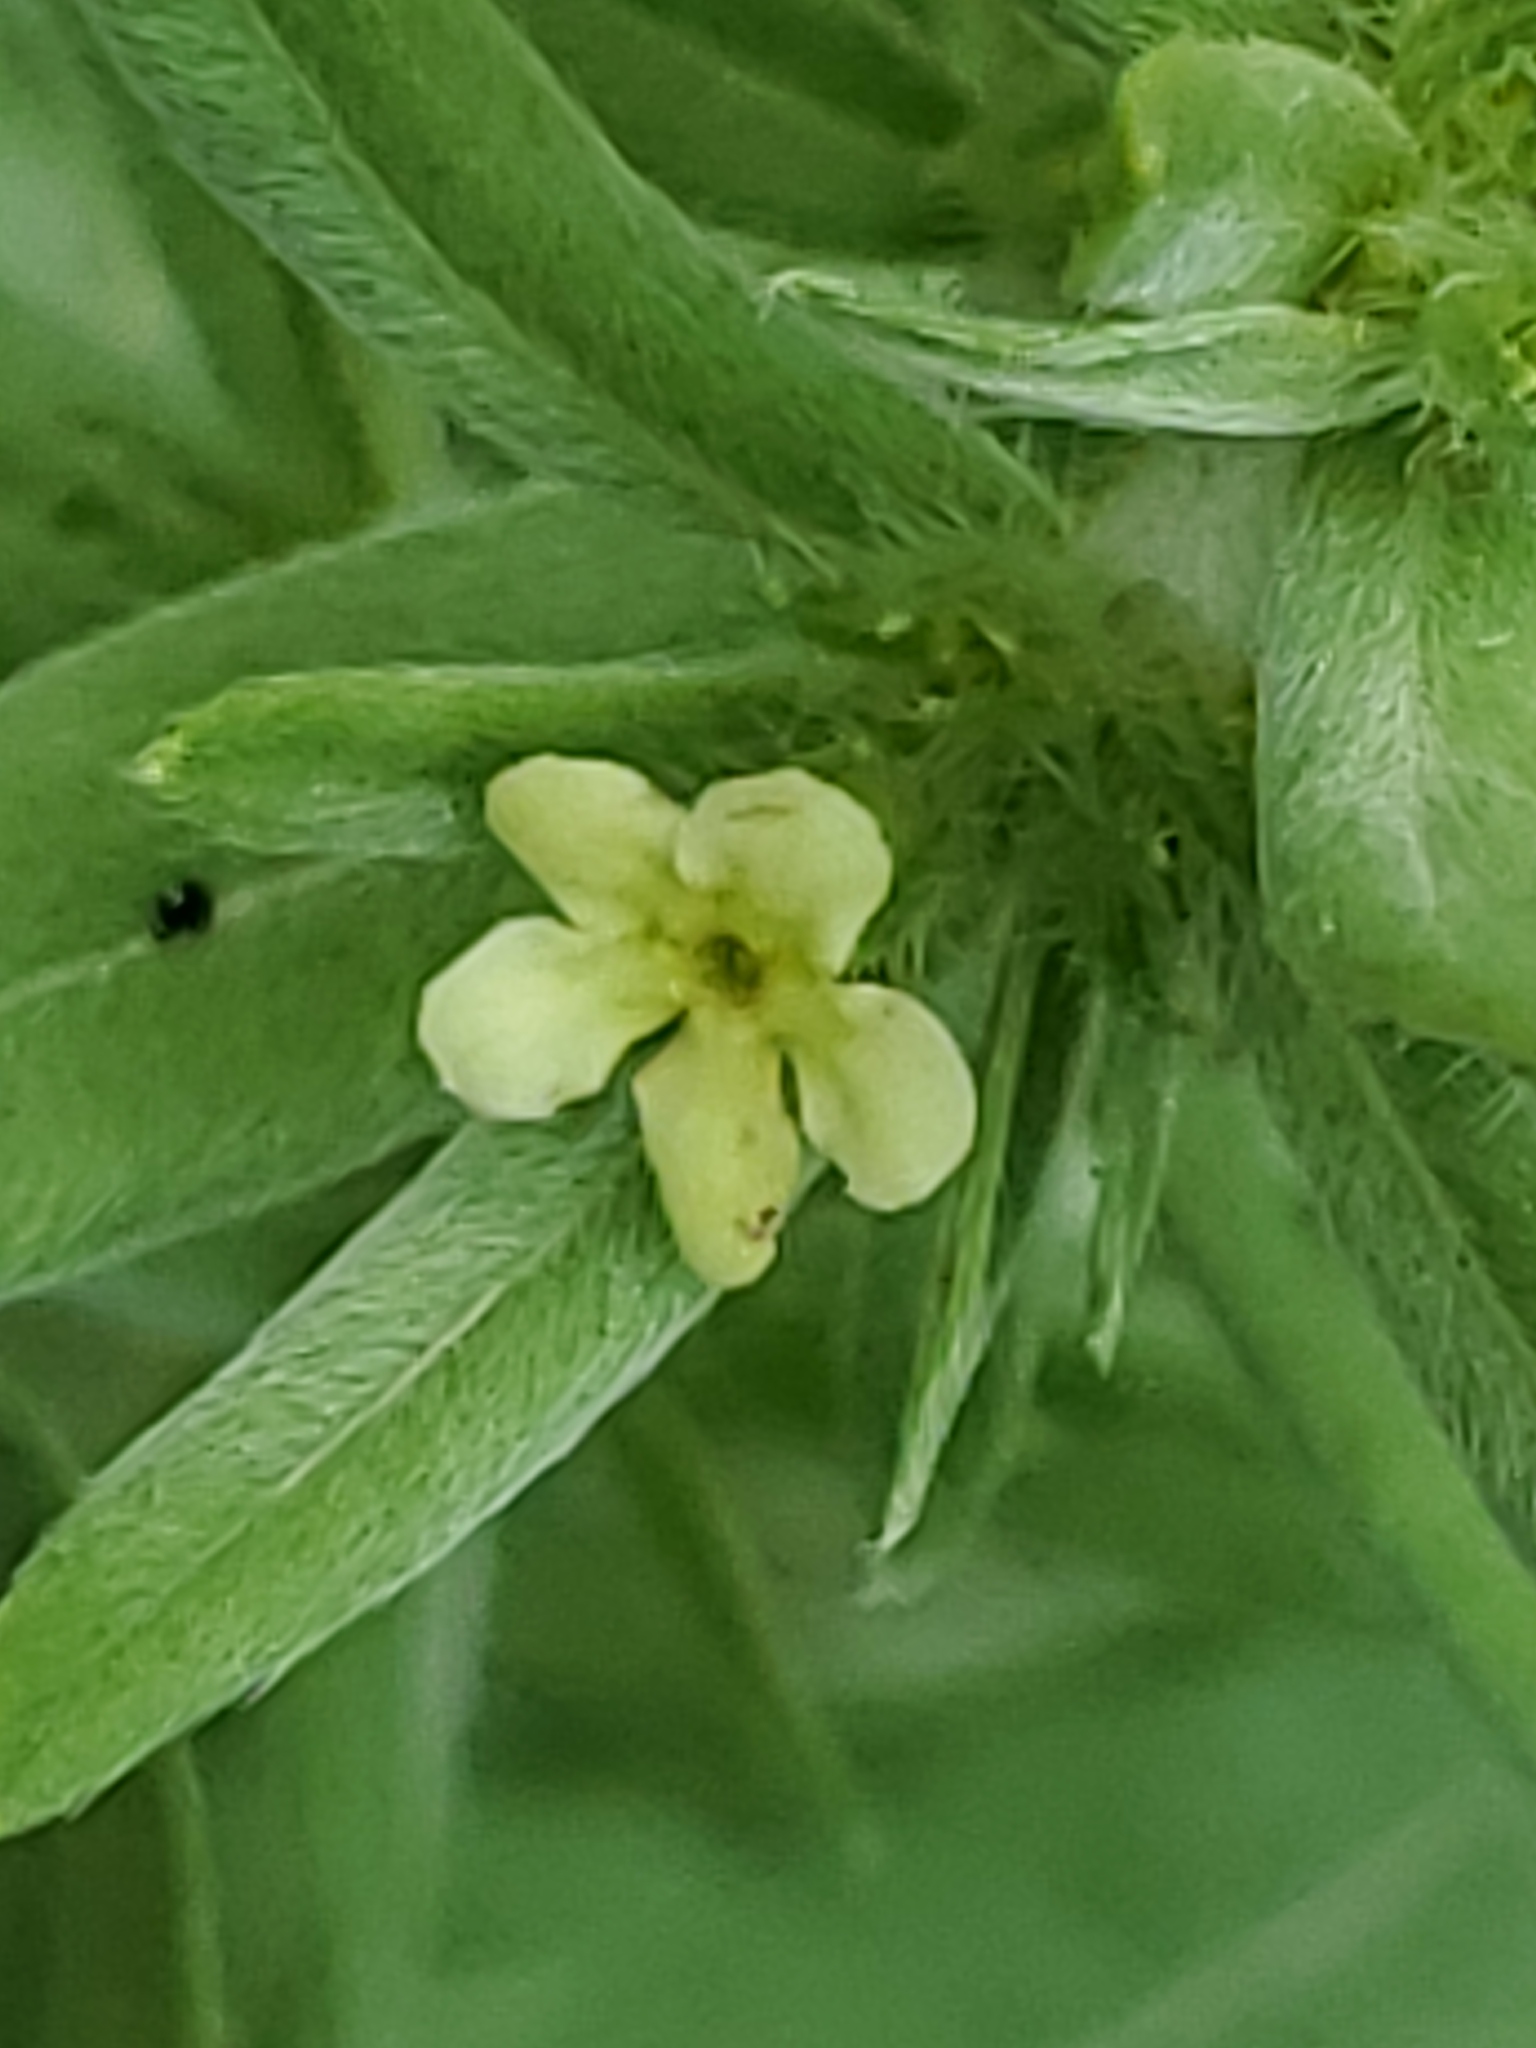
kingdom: Plantae
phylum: Tracheophyta
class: Magnoliopsida
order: Boraginales
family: Boraginaceae
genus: Lithospermum
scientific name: Lithospermum ruderale
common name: Western gromwell
